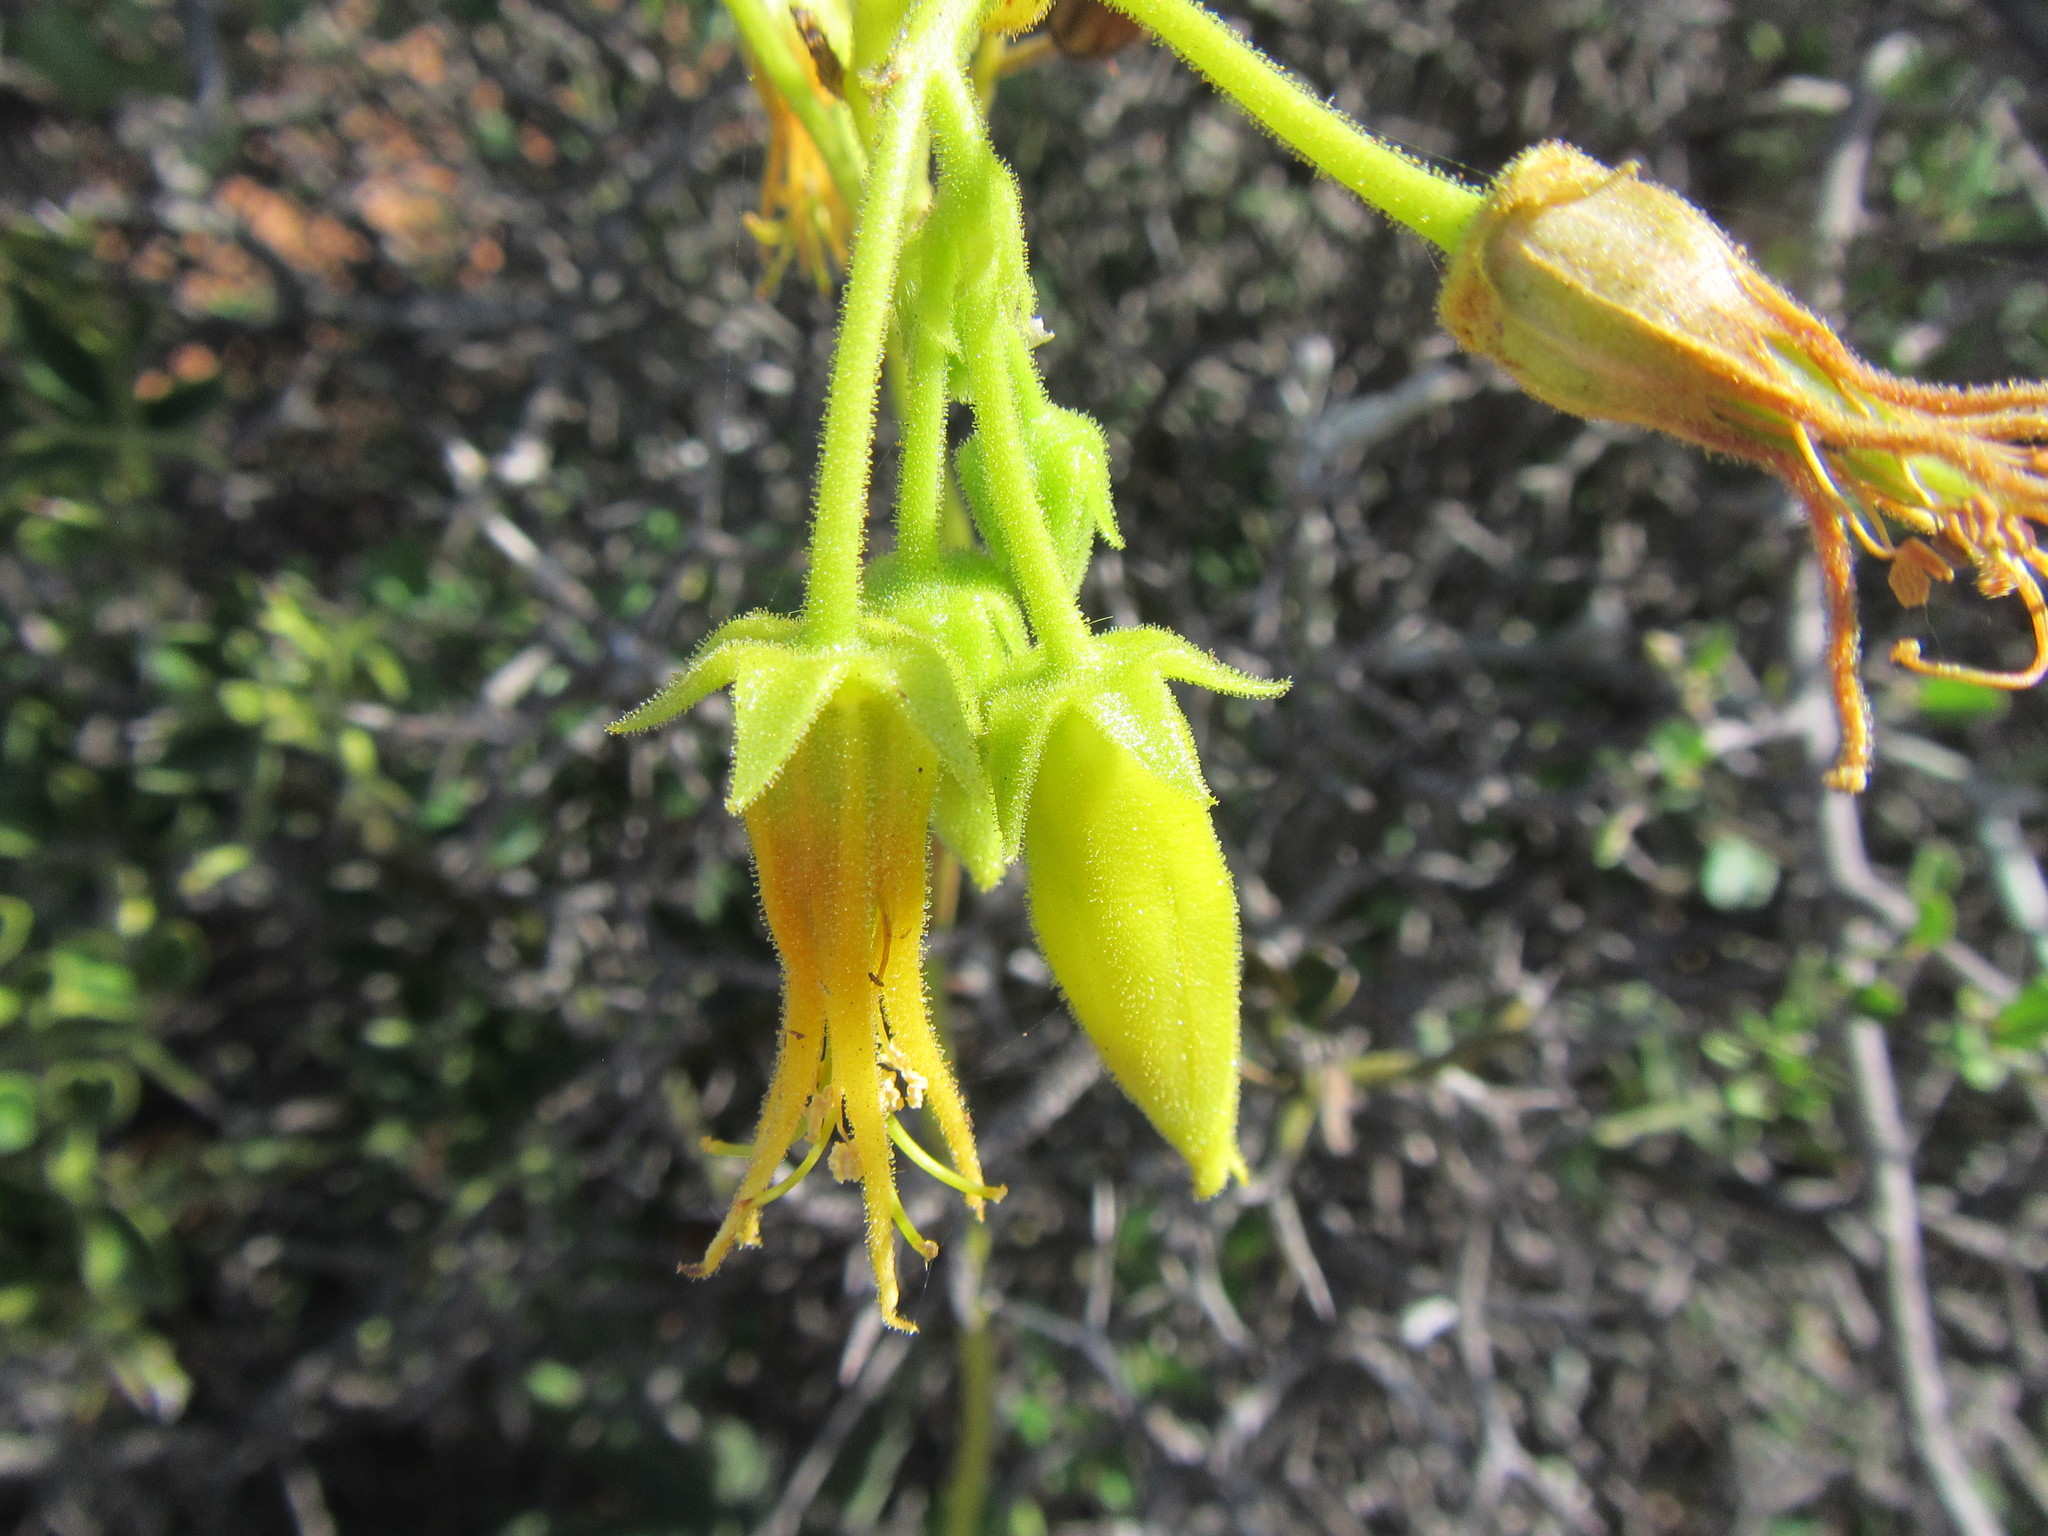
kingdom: Plantae
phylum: Tracheophyta
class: Magnoliopsida
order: Saxifragales
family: Crassulaceae
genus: Cotyledon
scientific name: Cotyledon campanulata
